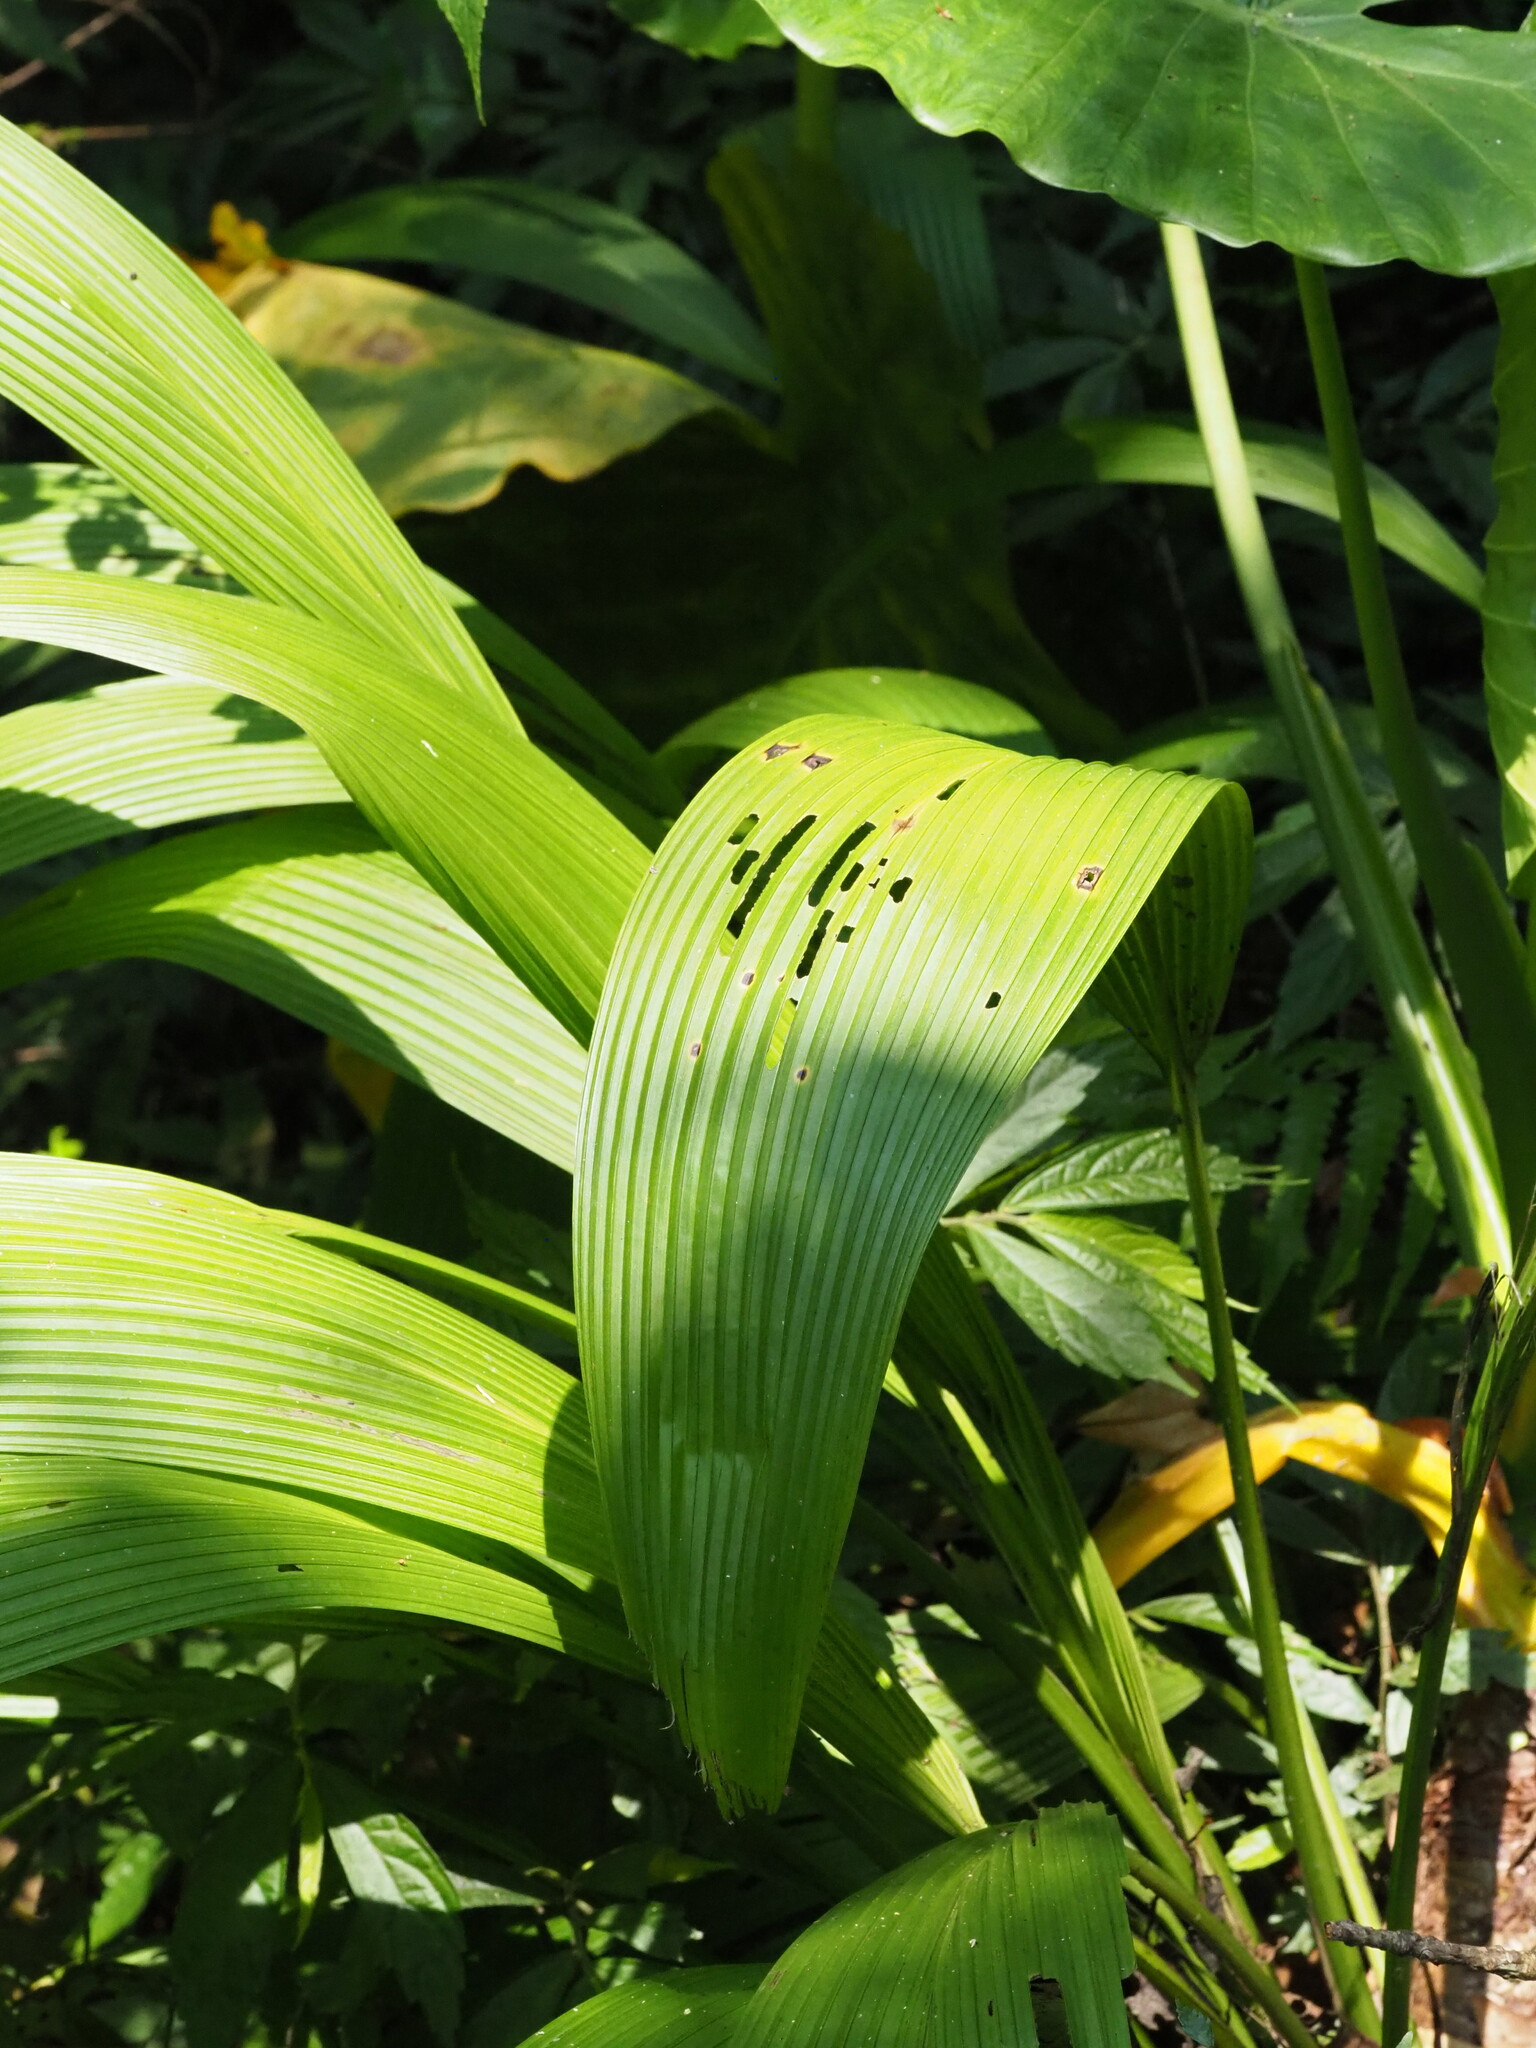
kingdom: Plantae
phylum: Tracheophyta
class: Liliopsida
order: Asparagales
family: Hypoxidaceae
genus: Curculigo
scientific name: Curculigo capitulata
